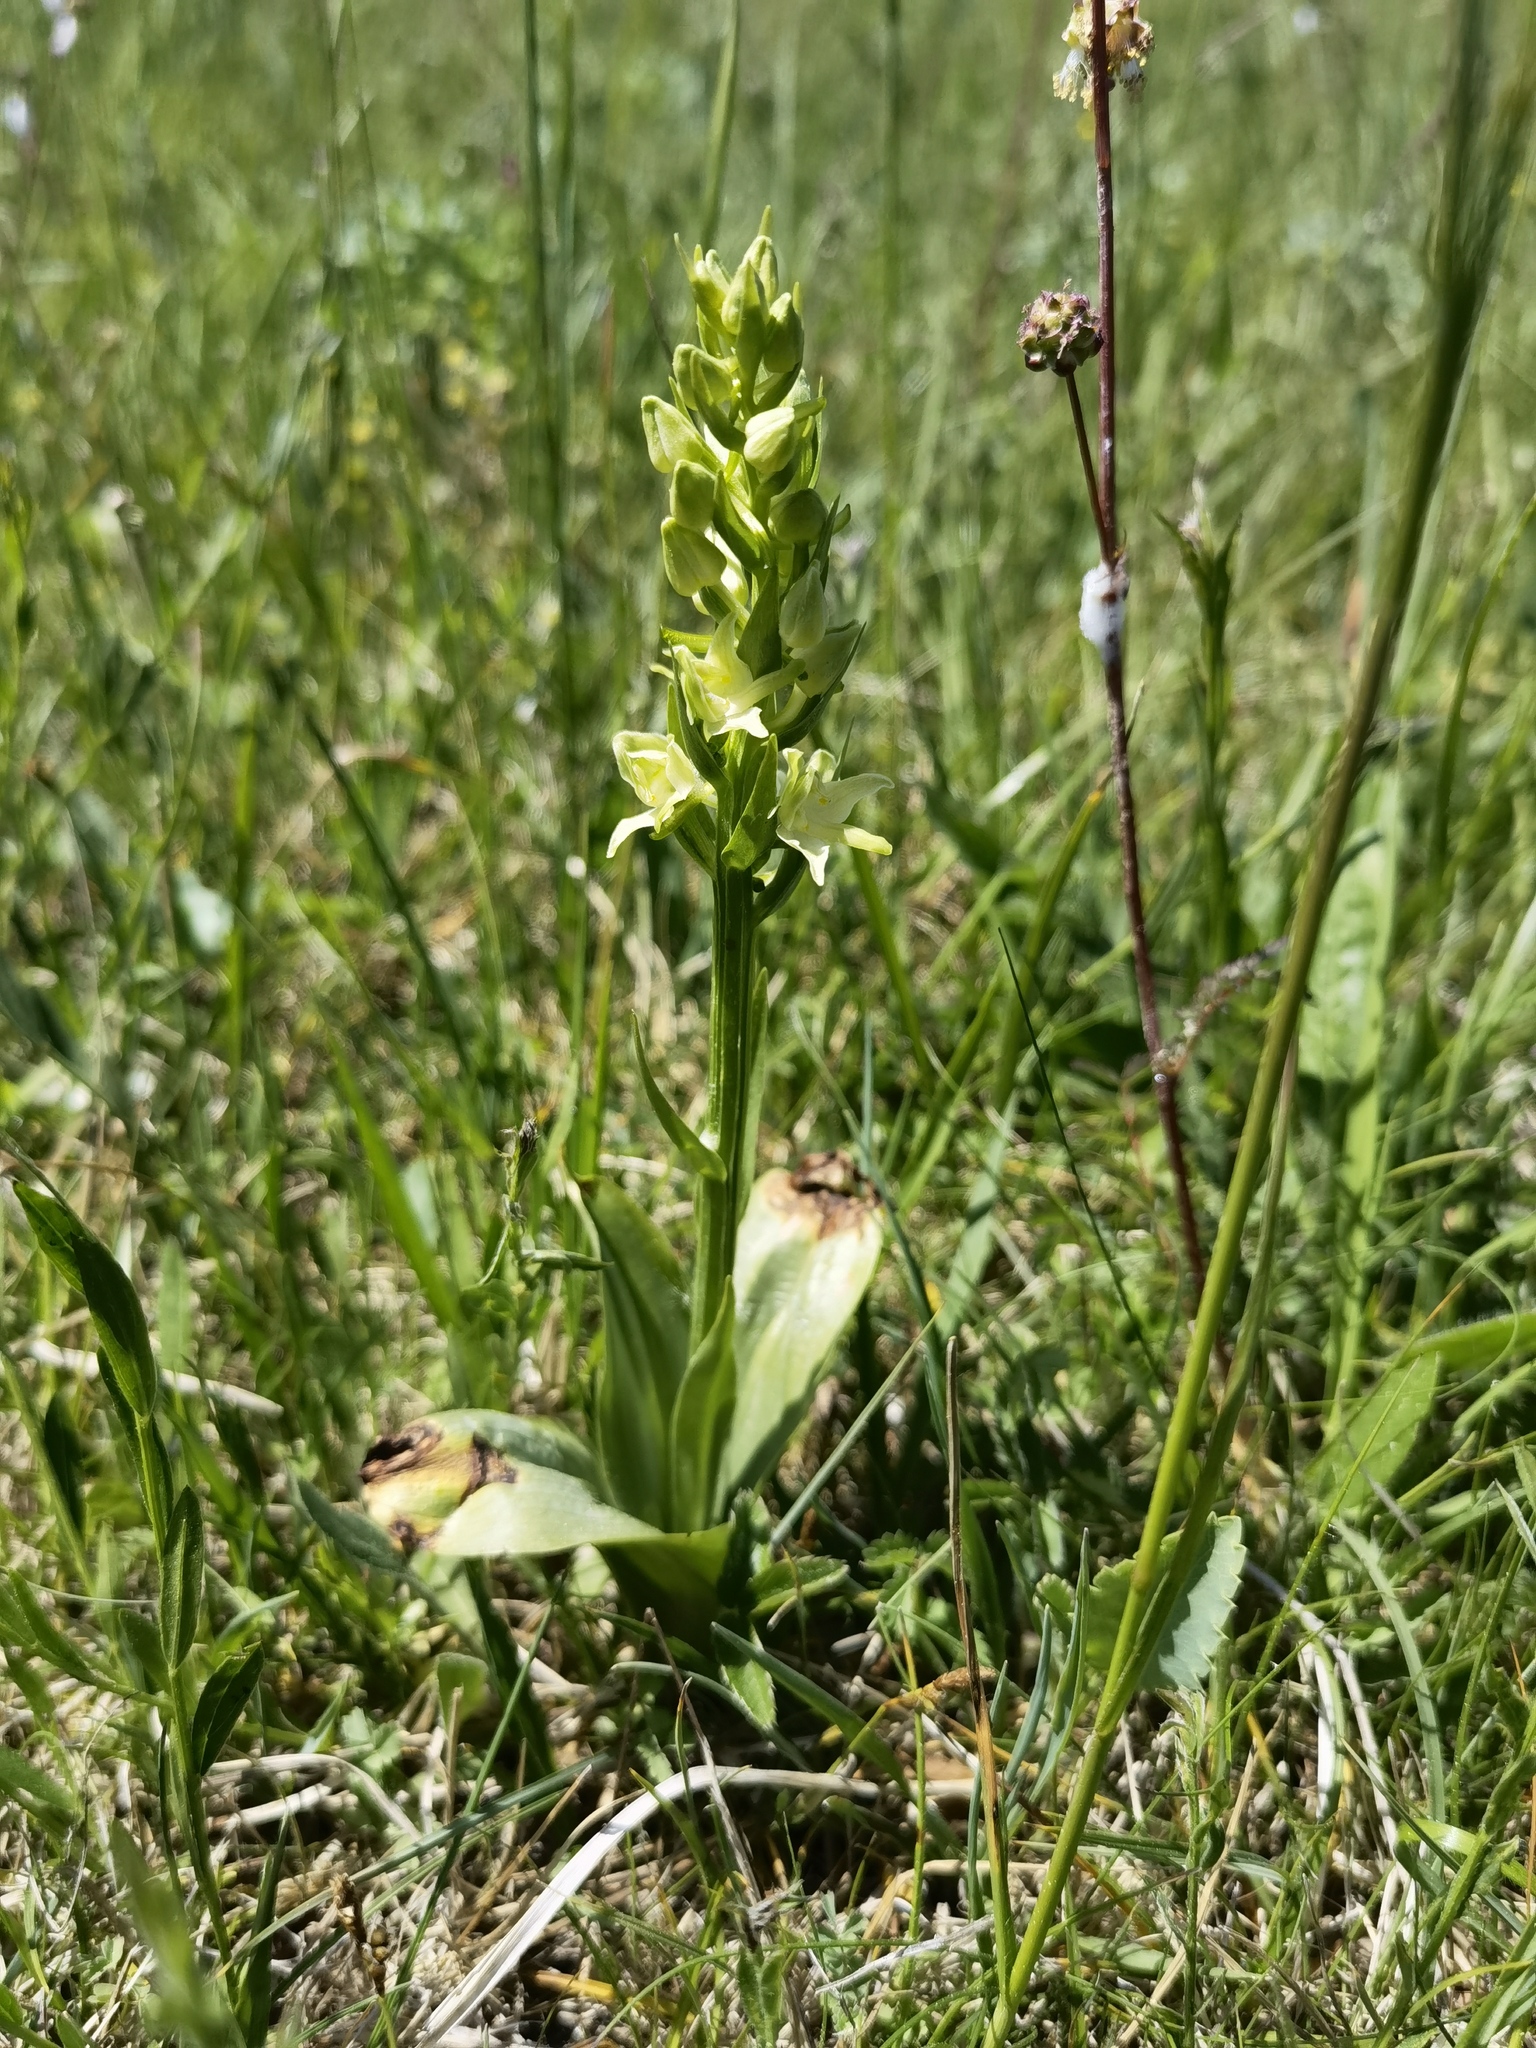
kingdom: Plantae
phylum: Tracheophyta
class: Liliopsida
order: Asparagales
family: Orchidaceae
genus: Platanthera
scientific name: Platanthera chlorantha
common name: Greater butterfly-orchid
